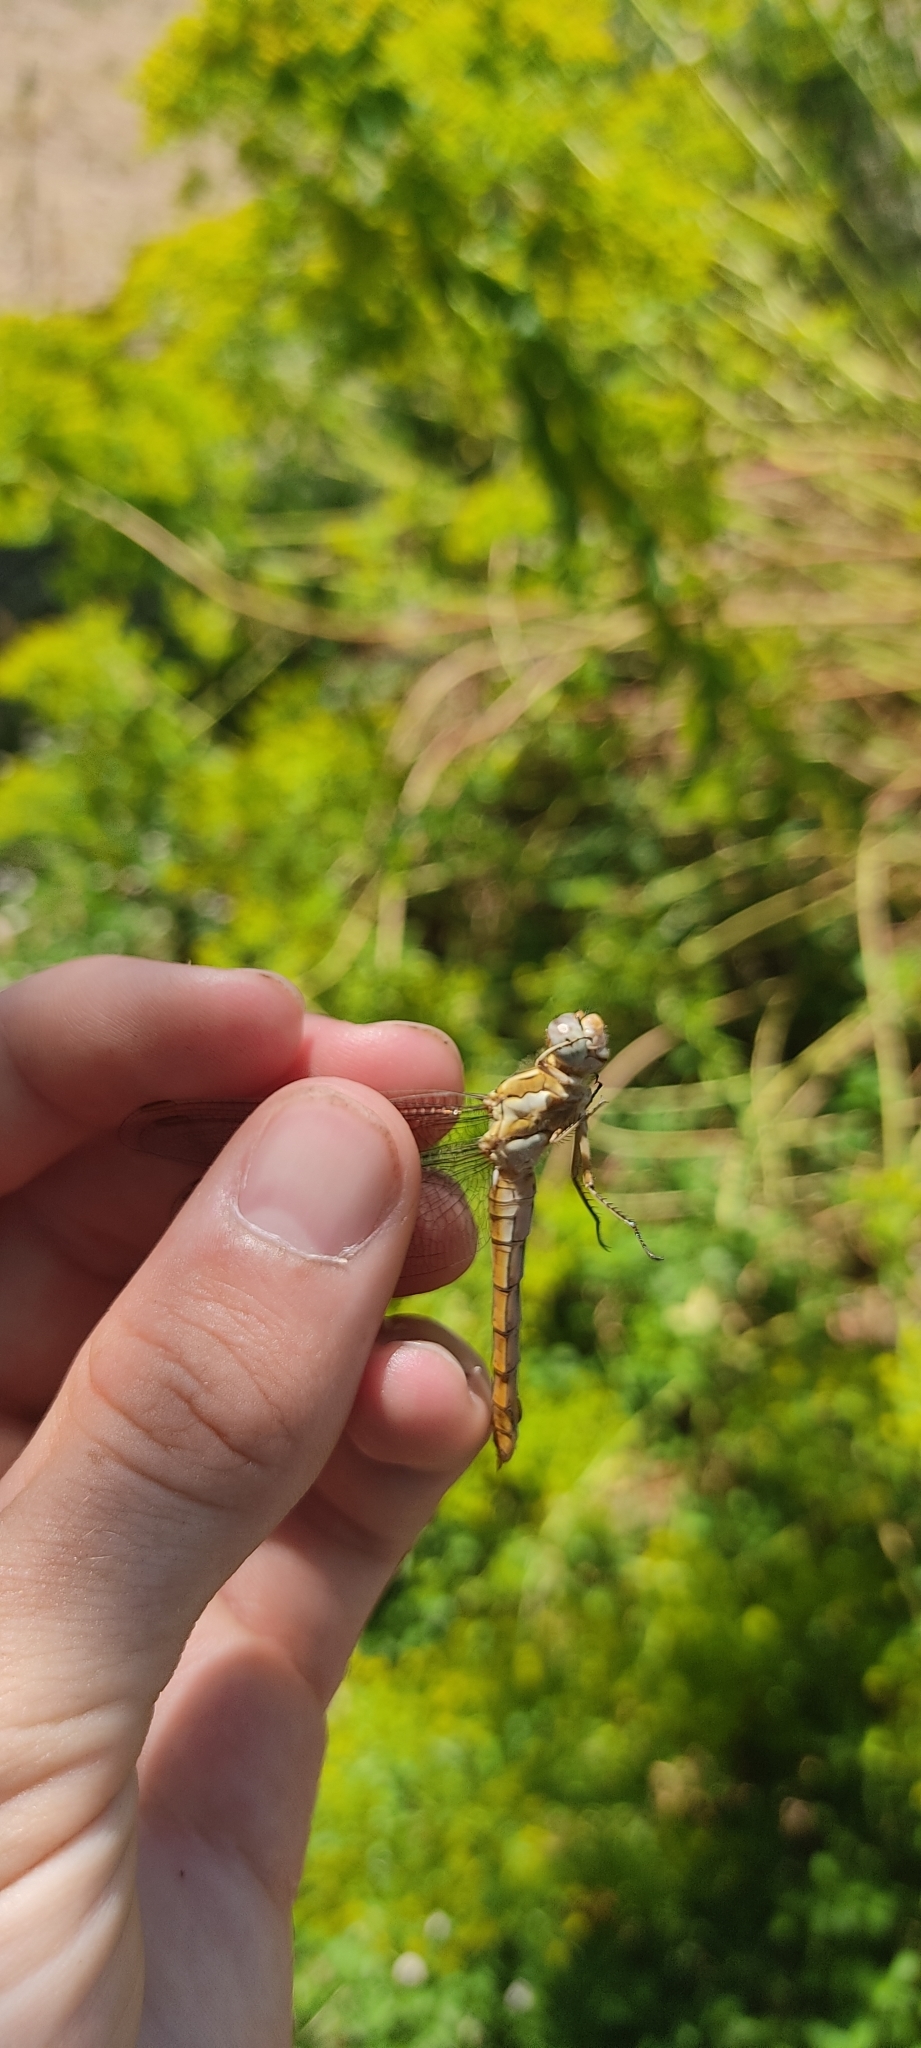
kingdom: Animalia
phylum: Arthropoda
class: Insecta
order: Odonata
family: Libellulidae
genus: Orthetrum
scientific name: Orthetrum brunneum
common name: Southern skimmer
